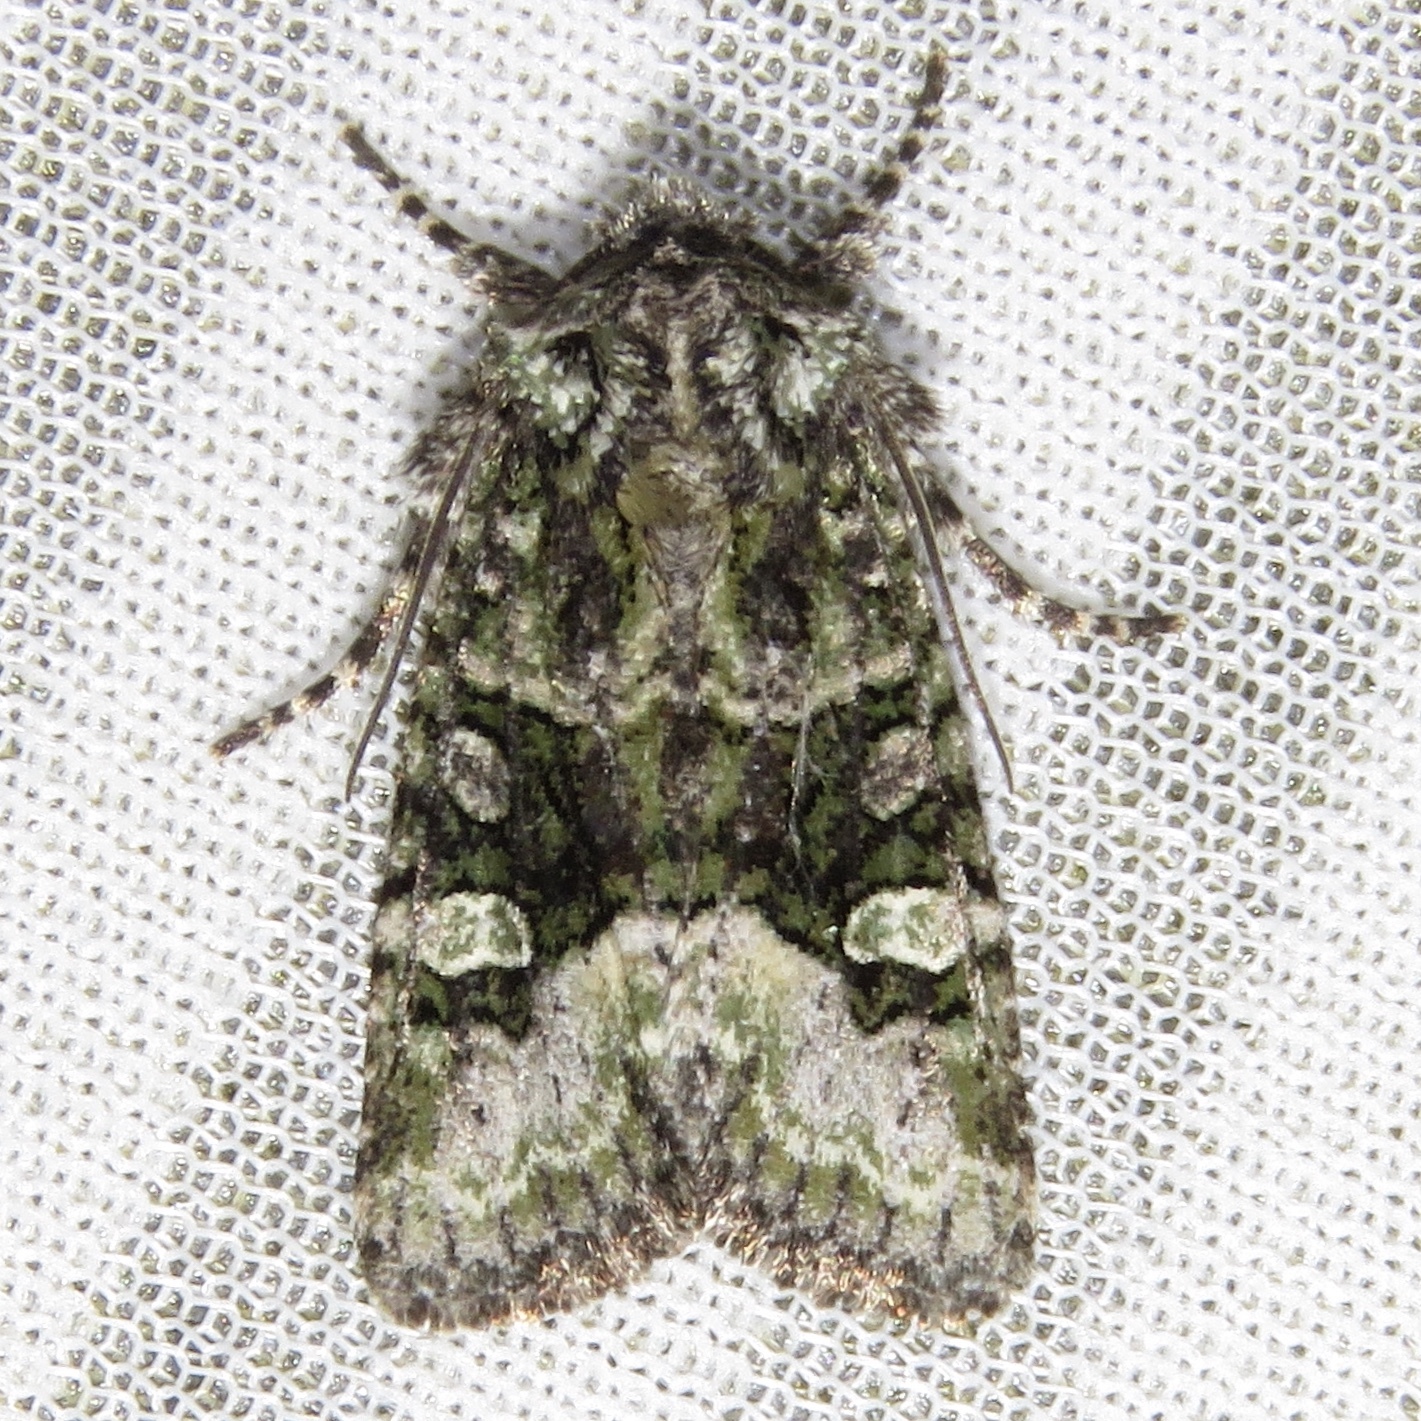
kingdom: Animalia
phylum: Arthropoda
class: Insecta
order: Lepidoptera
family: Noctuidae
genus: Lacinipolia
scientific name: Lacinipolia olivacea
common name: Olive arches moth
